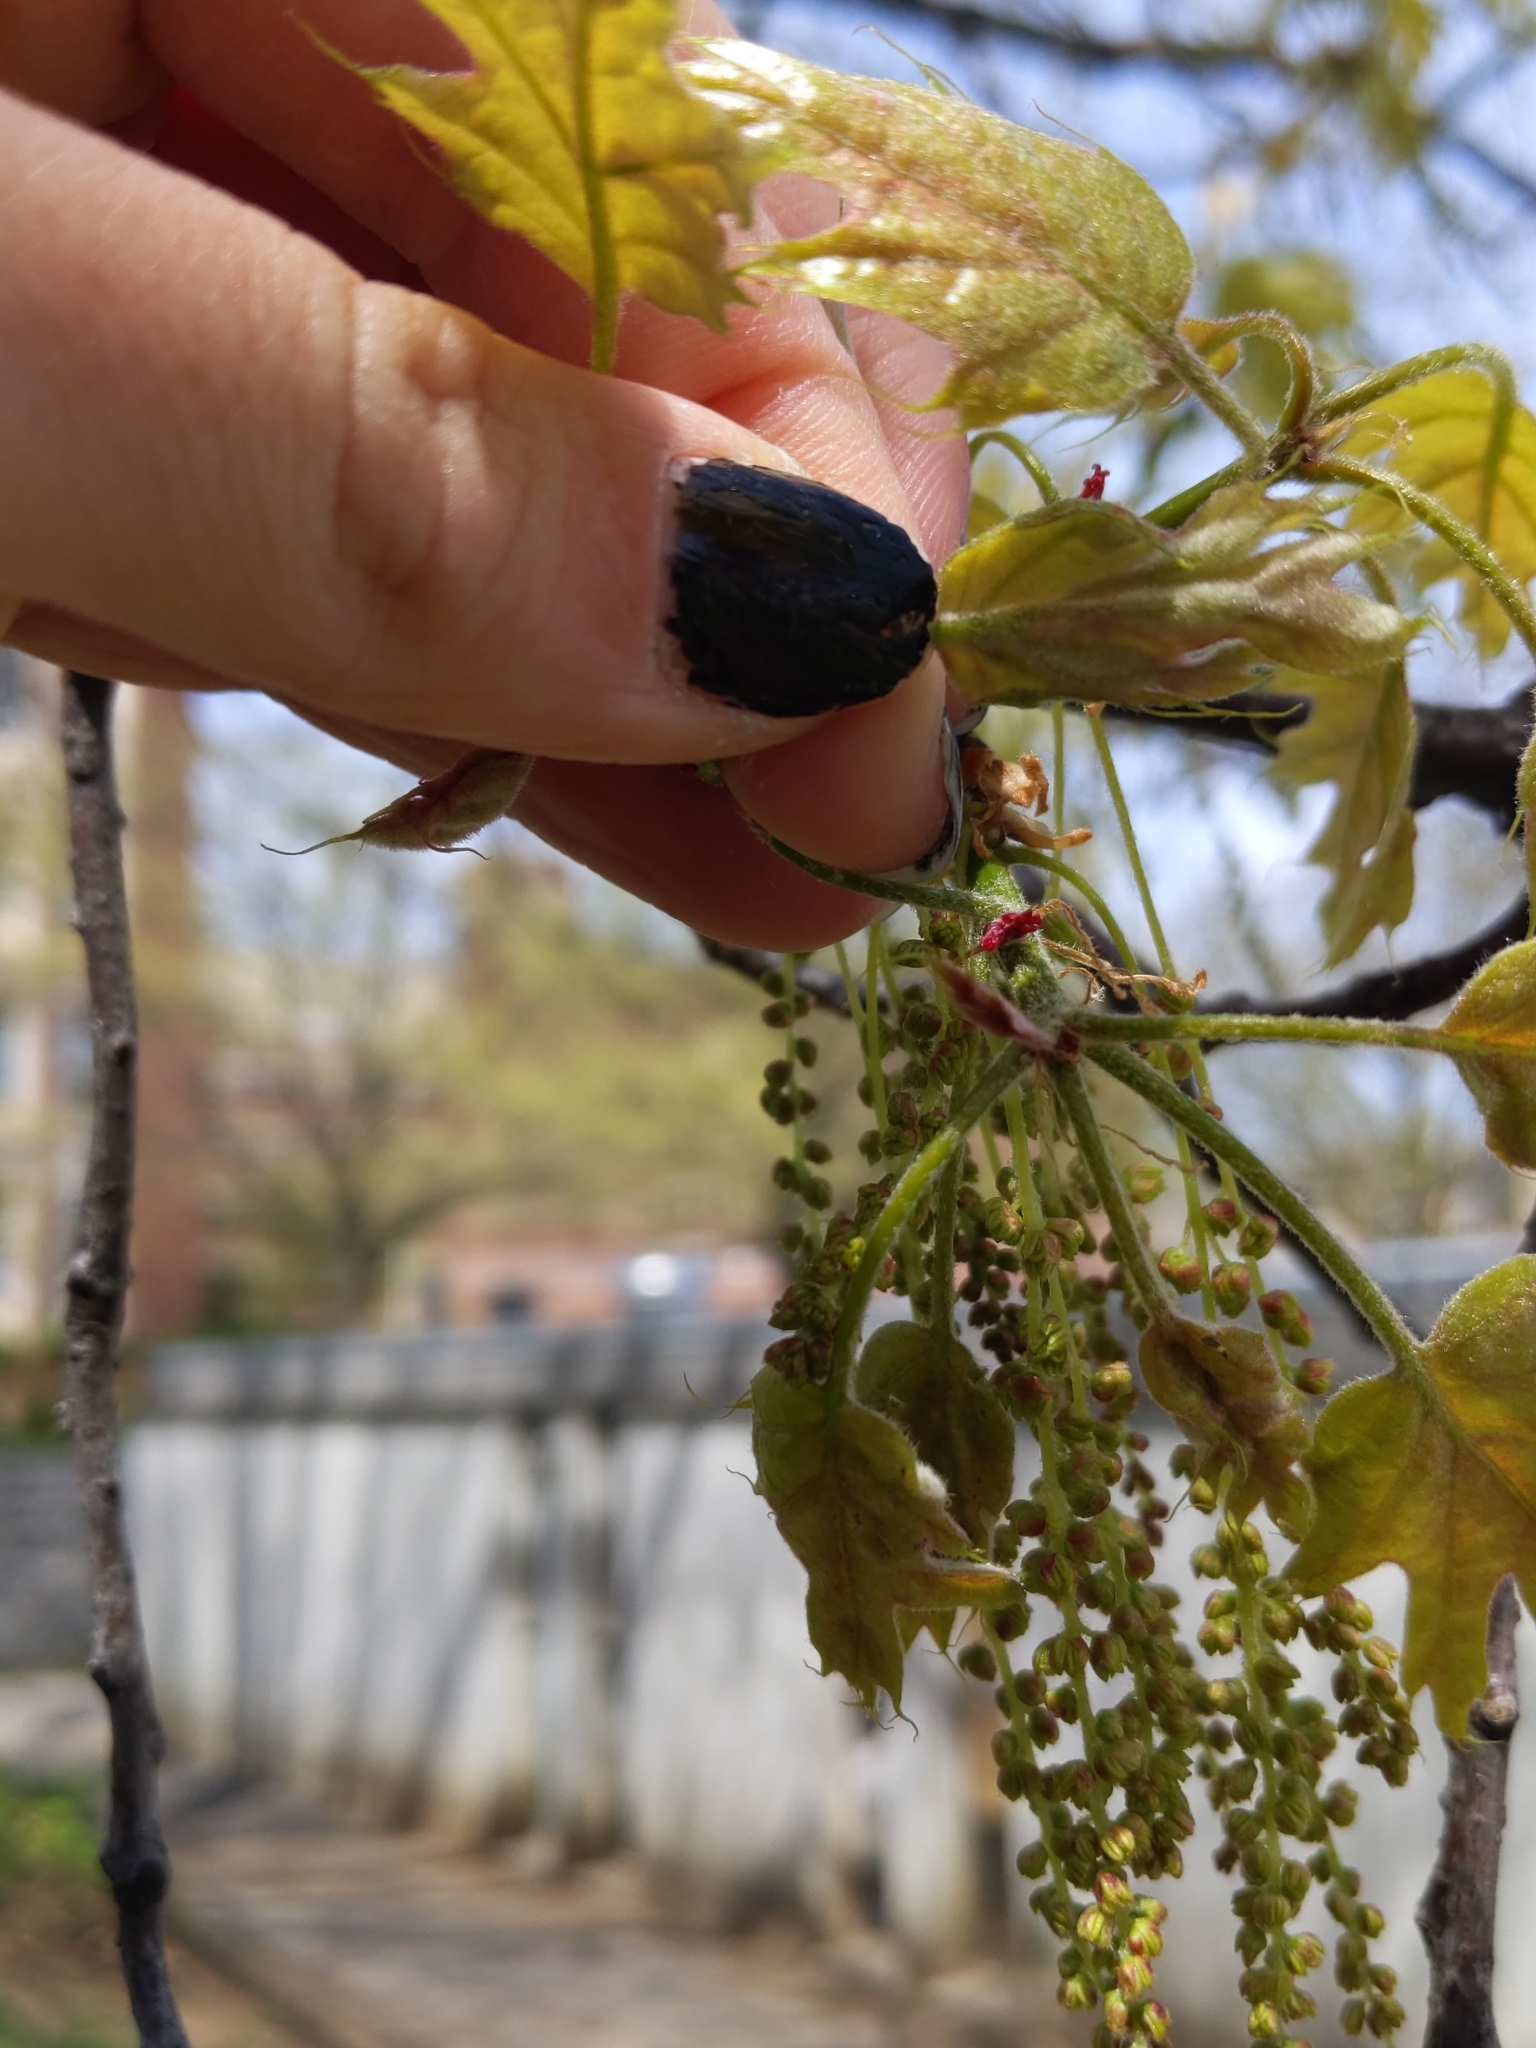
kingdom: Animalia
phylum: Arthropoda
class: Insecta
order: Diptera
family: Cecidomyiidae
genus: Macrodiplosis
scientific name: Macrodiplosis niveipila
